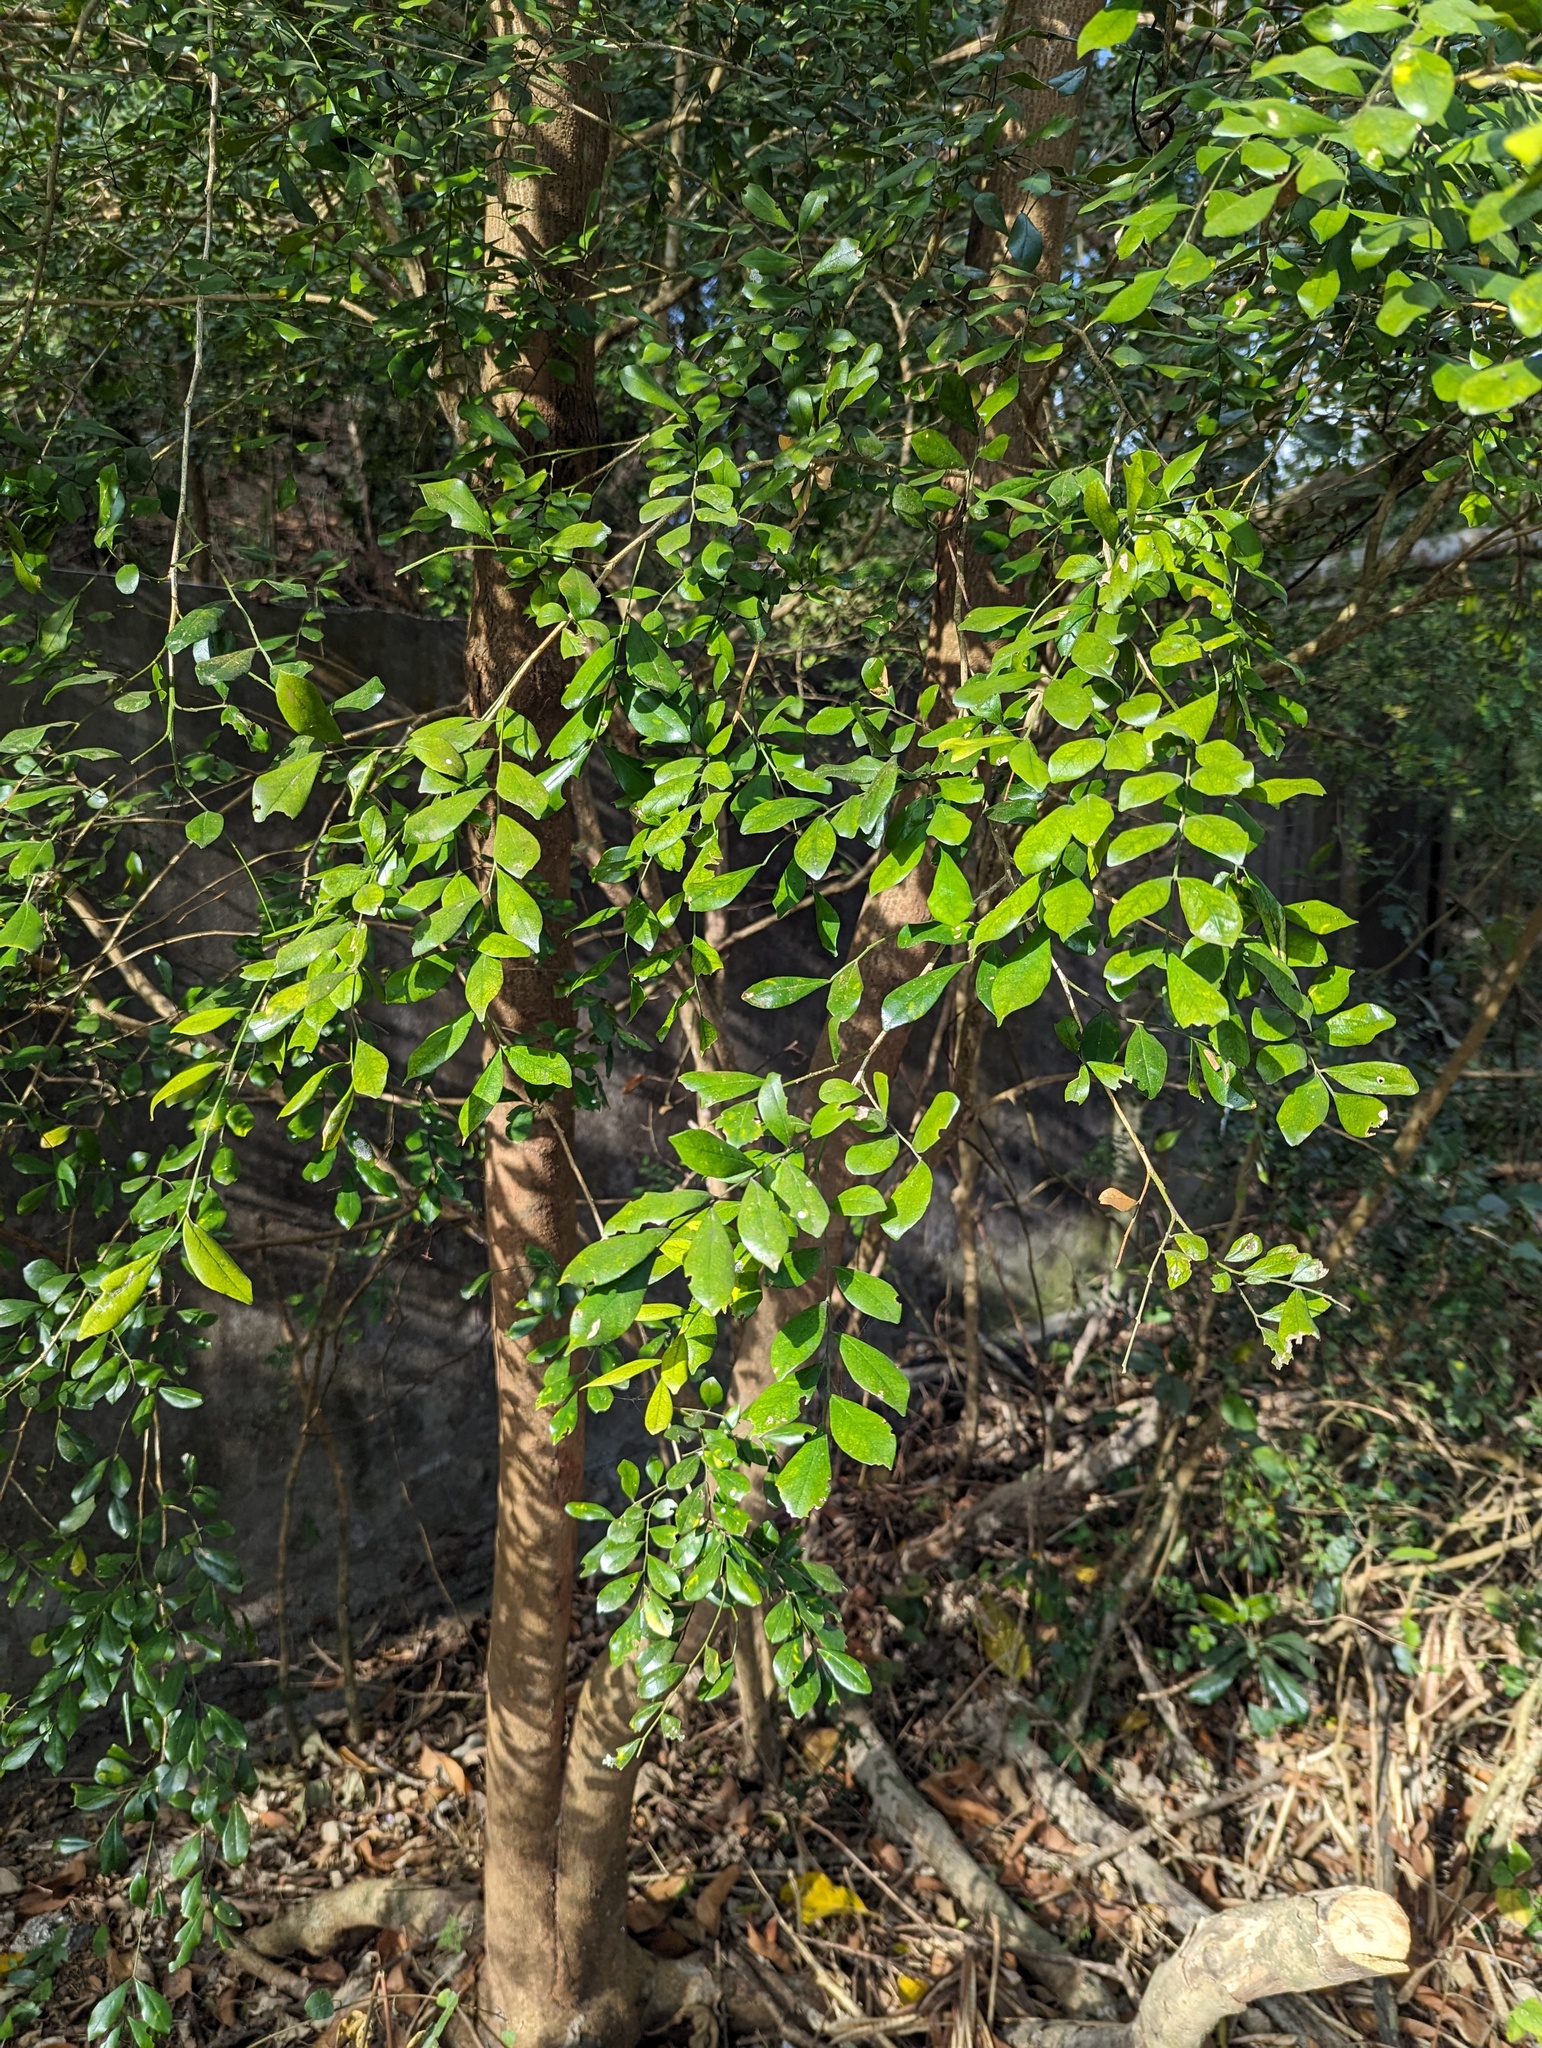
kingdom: Plantae
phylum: Tracheophyta
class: Magnoliopsida
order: Sapindales
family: Rutaceae
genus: Murraya
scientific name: Murraya paniculata
